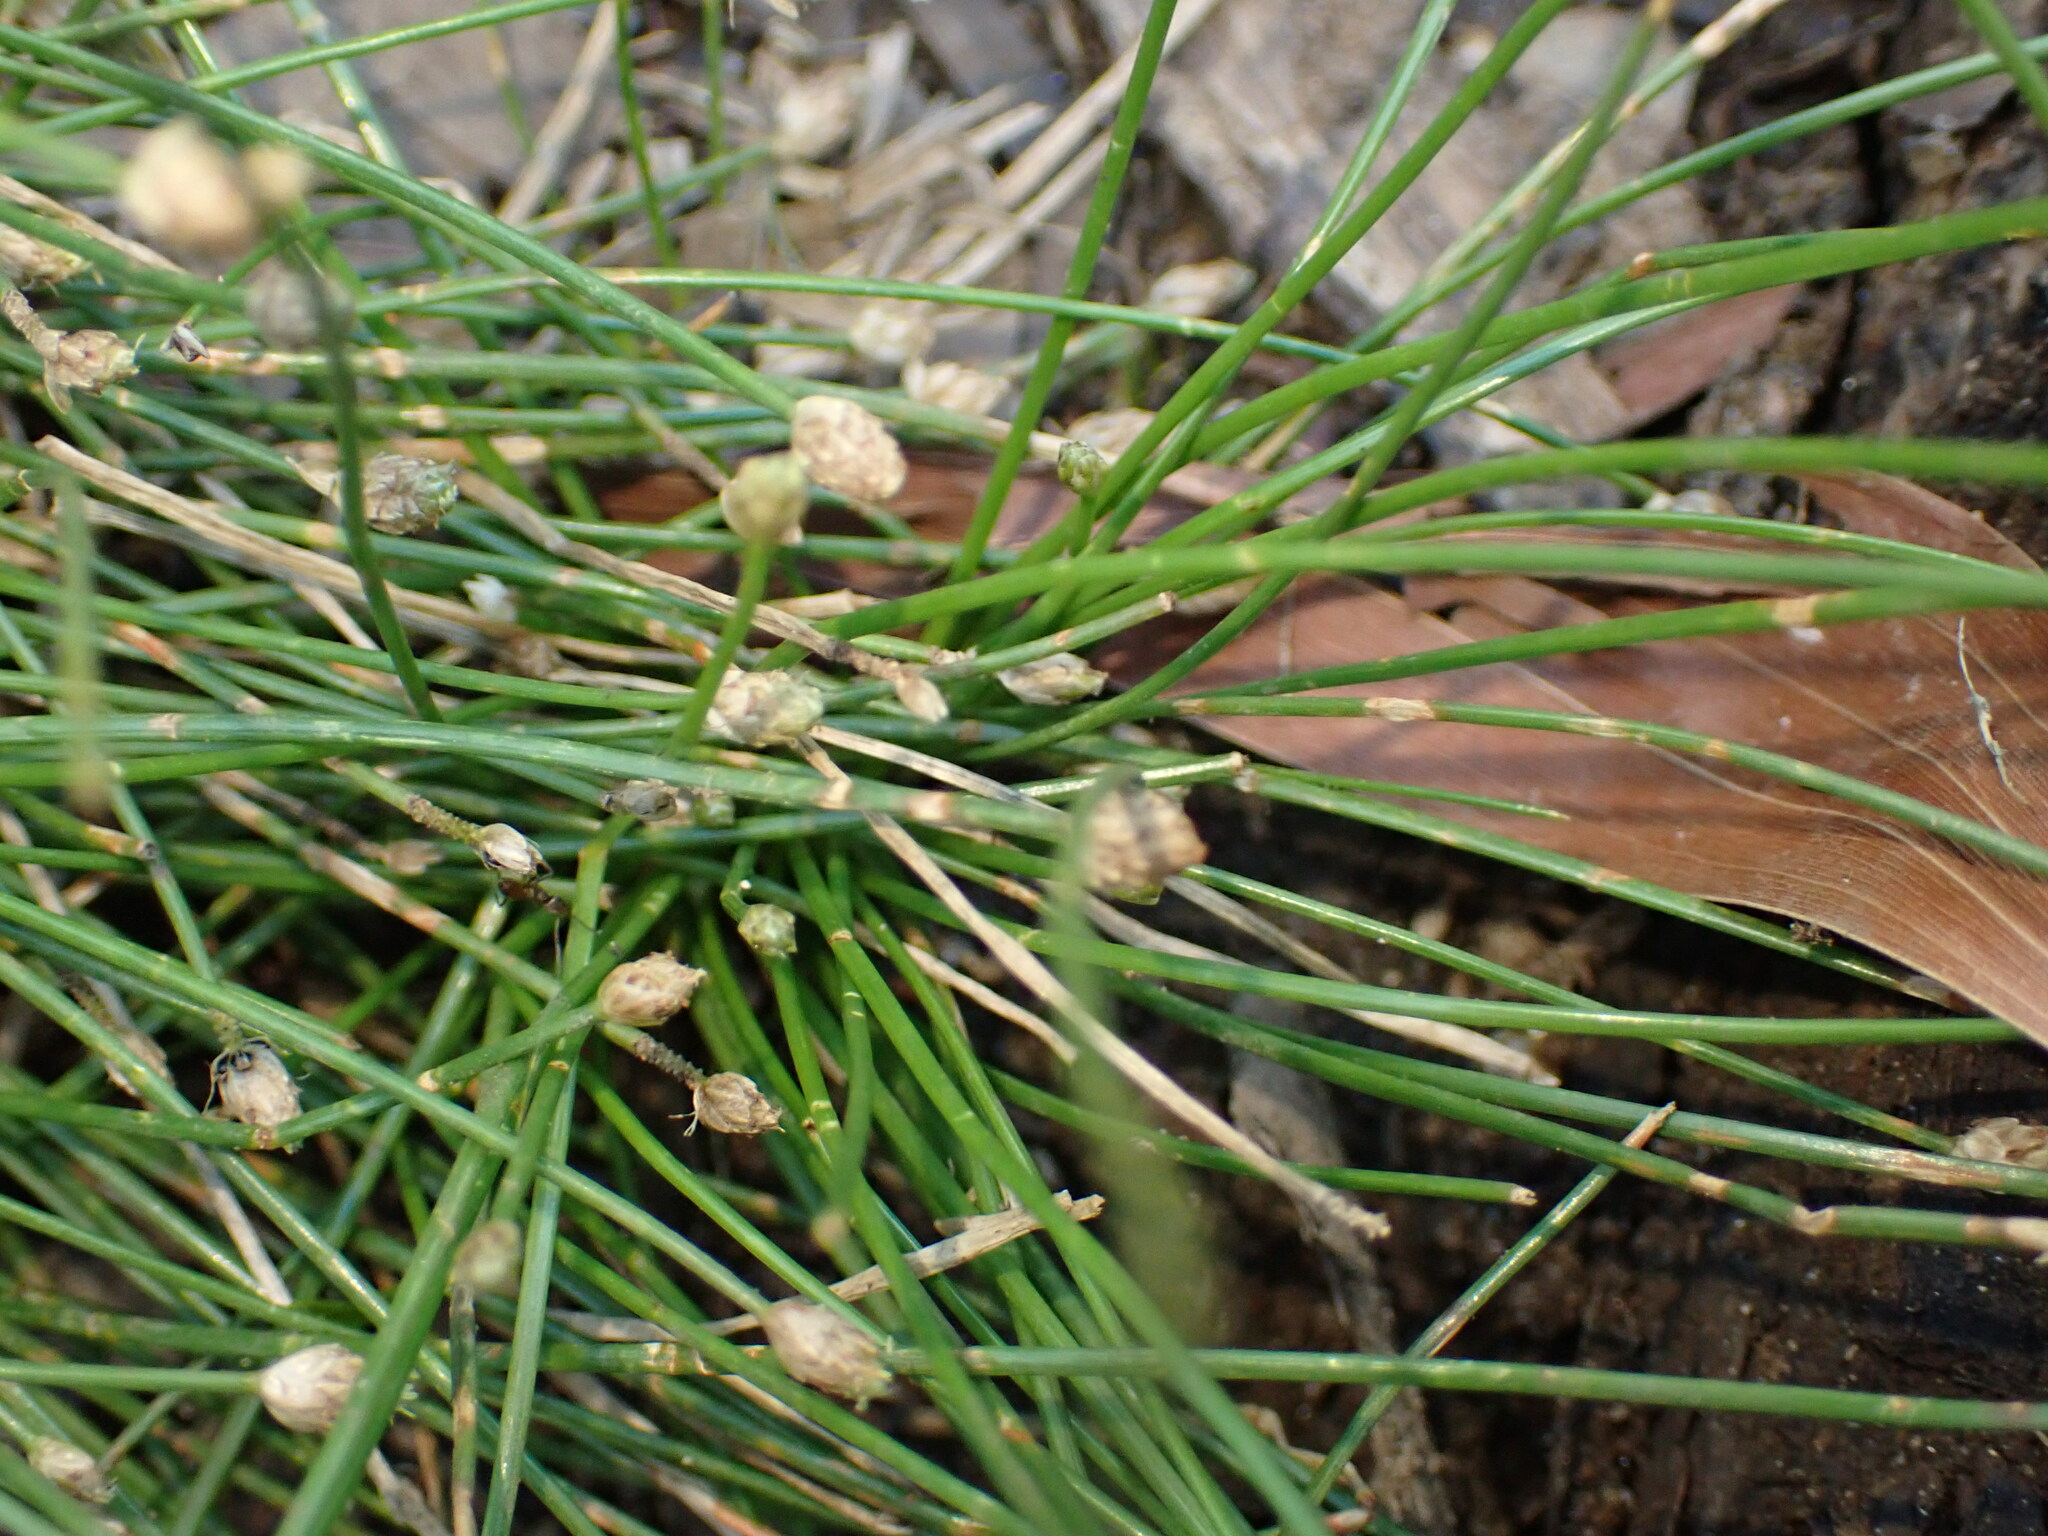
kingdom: Plantae
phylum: Tracheophyta
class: Liliopsida
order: Poales
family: Cyperaceae
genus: Eleocharis
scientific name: Eleocharis geniculata
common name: Canada spikesedge
